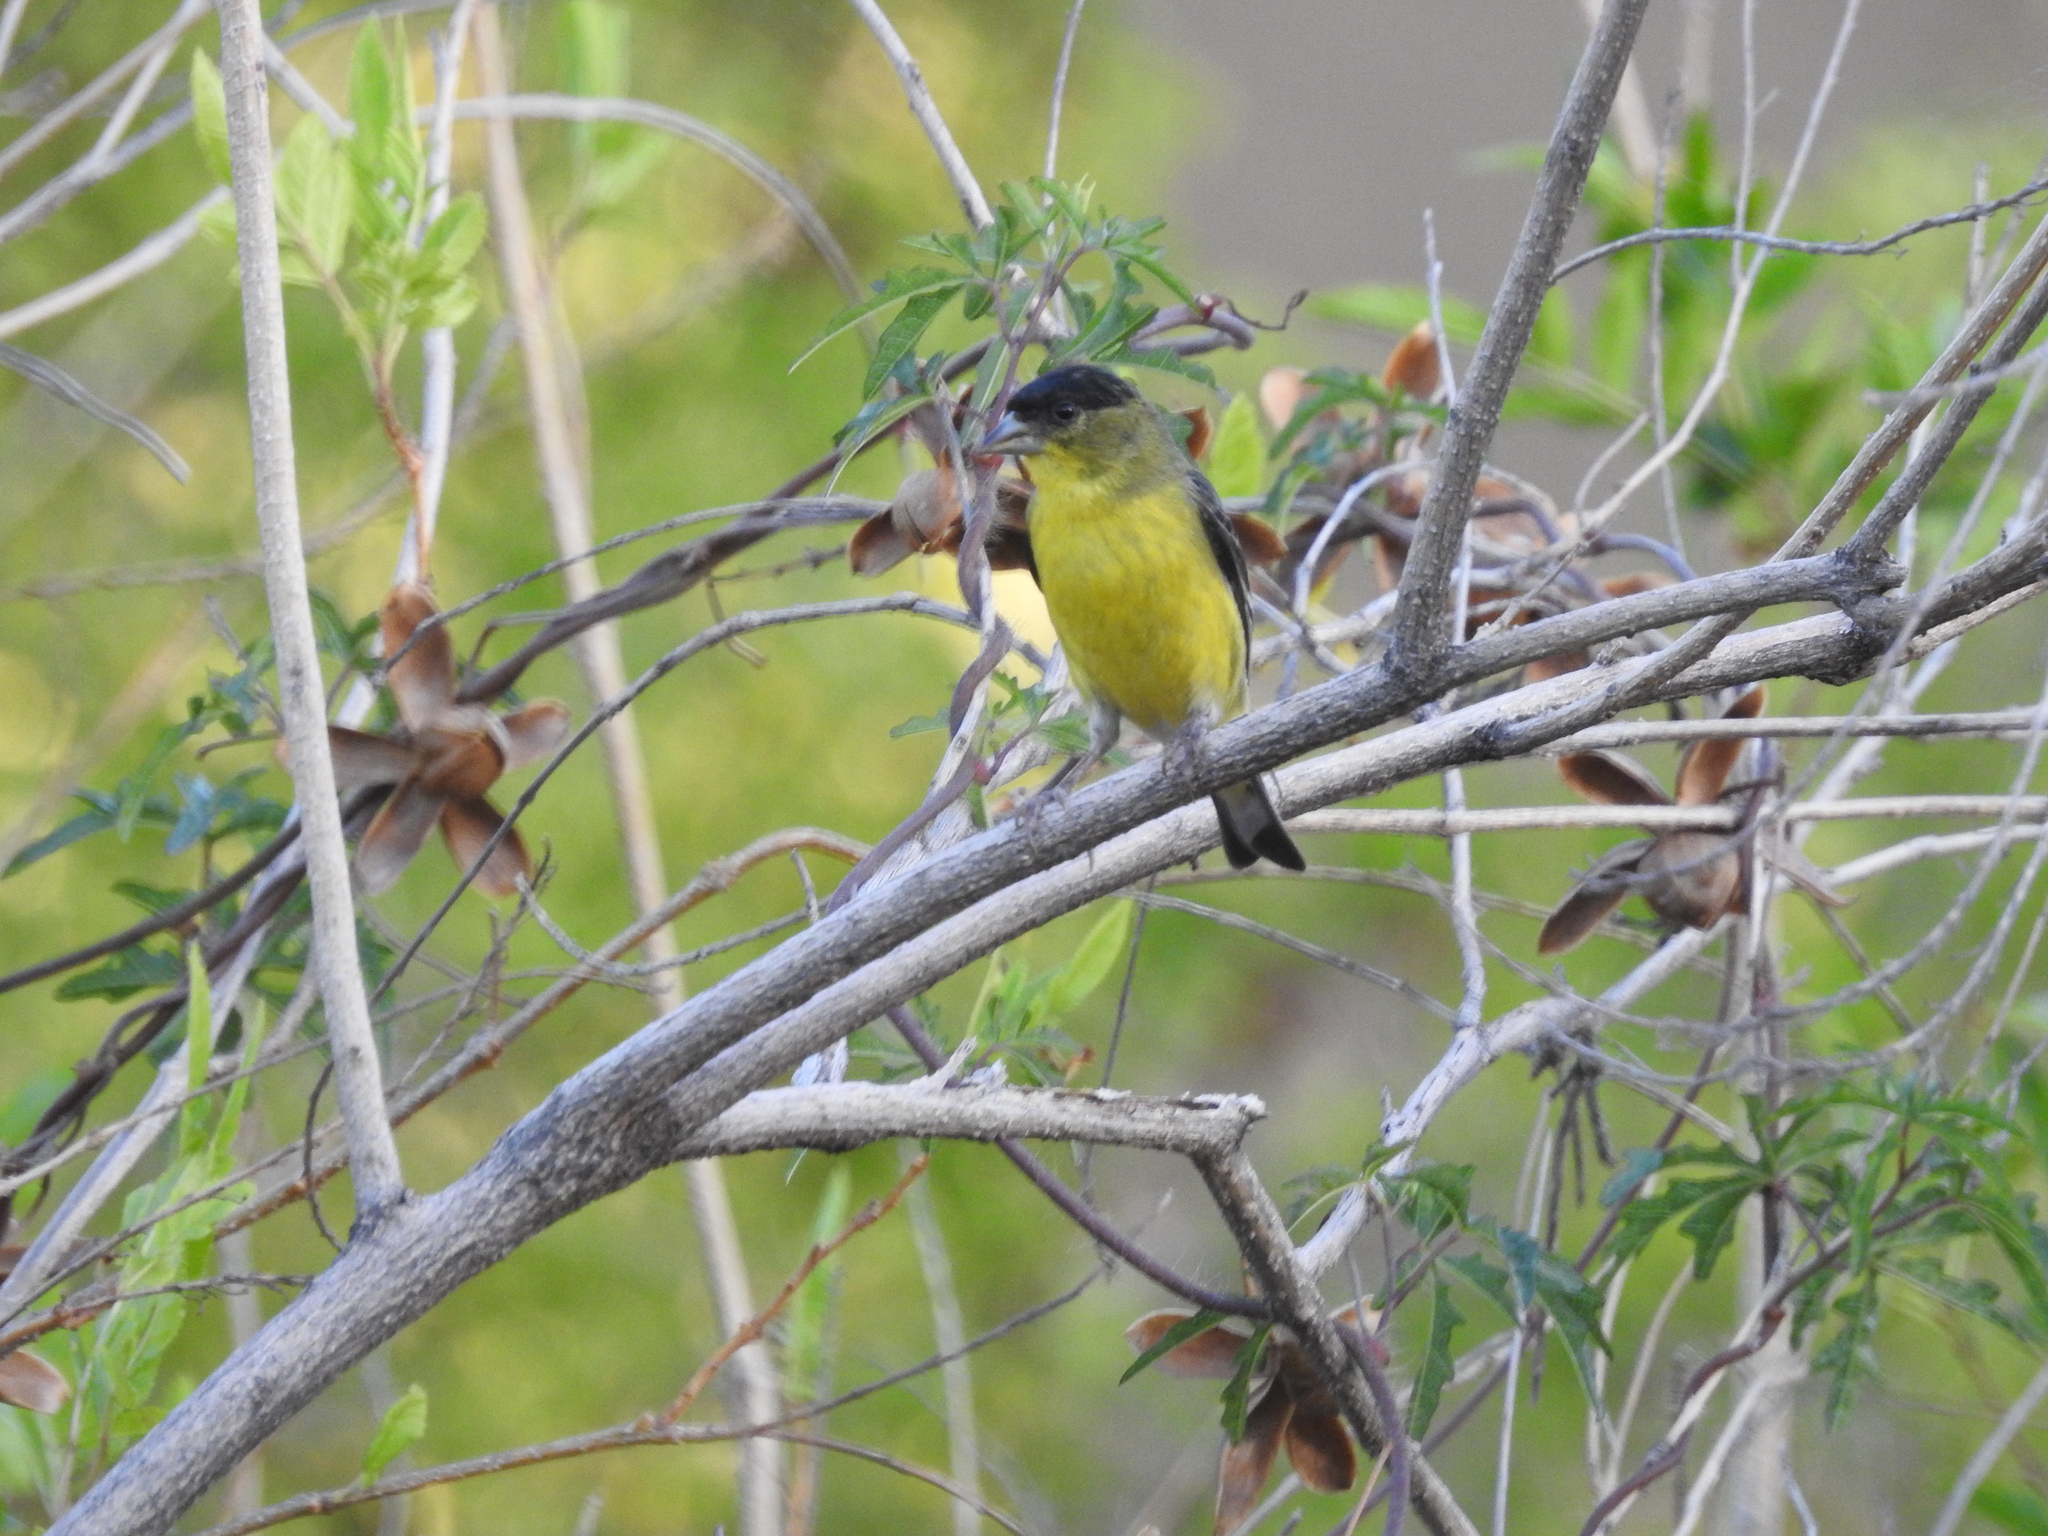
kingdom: Animalia
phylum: Chordata
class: Aves
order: Passeriformes
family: Fringillidae
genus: Spinus
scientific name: Spinus psaltria
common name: Lesser goldfinch
